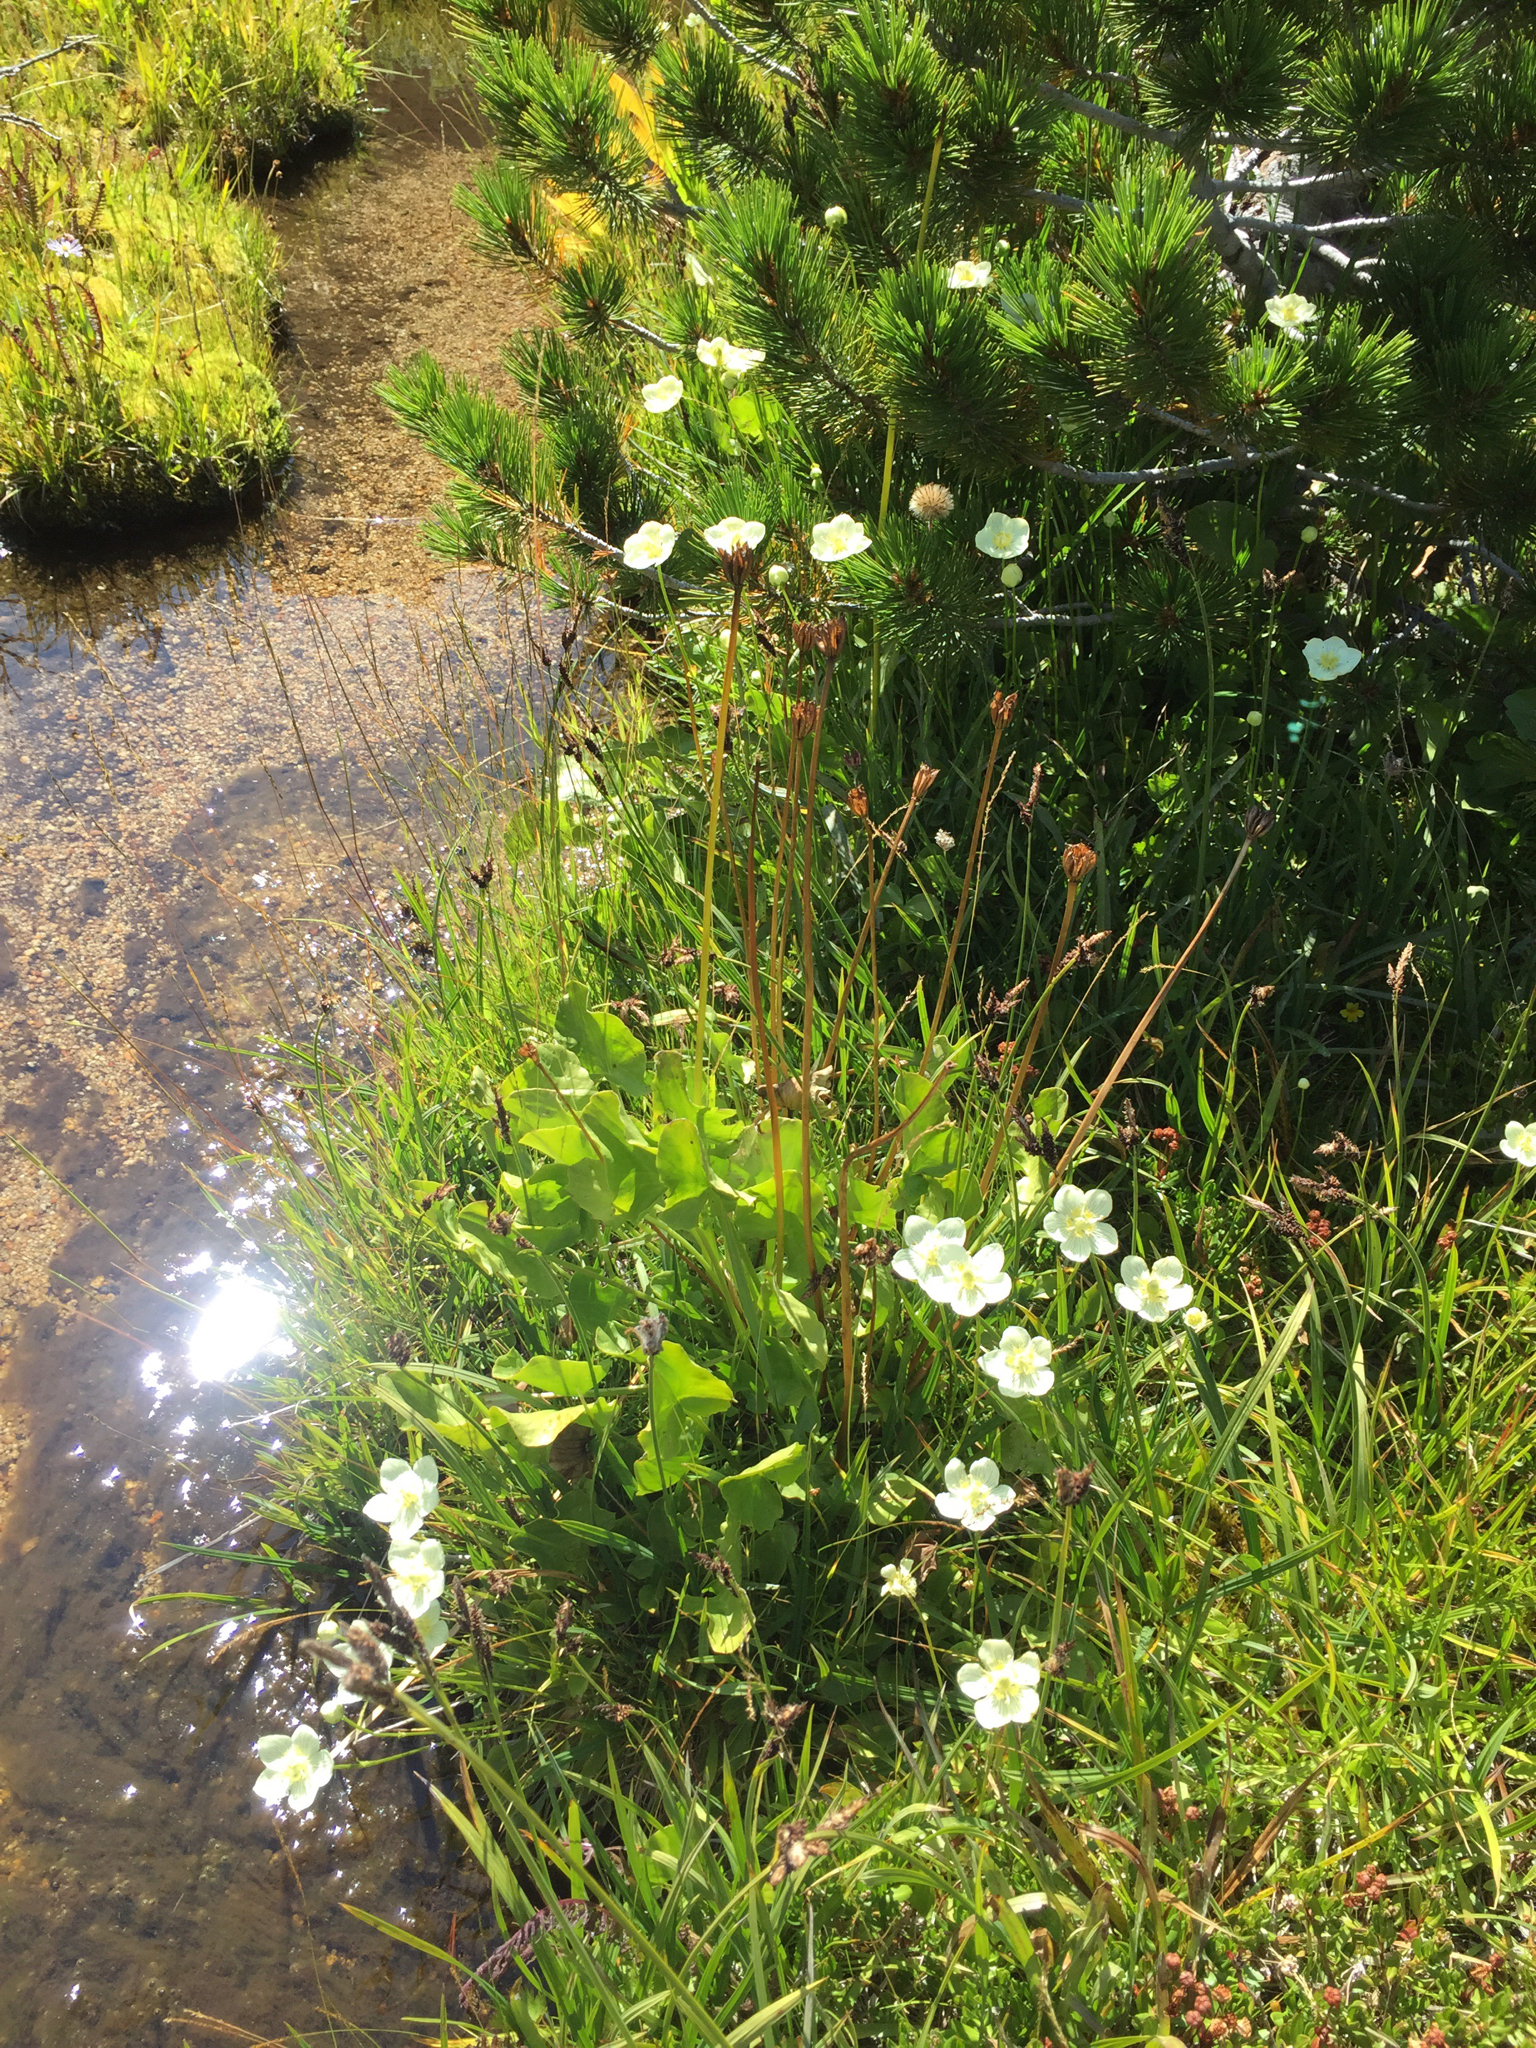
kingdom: Plantae
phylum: Tracheophyta
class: Magnoliopsida
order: Celastrales
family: Parnassiaceae
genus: Parnassia
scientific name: Parnassia palustris
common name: Grass-of-parnassus
